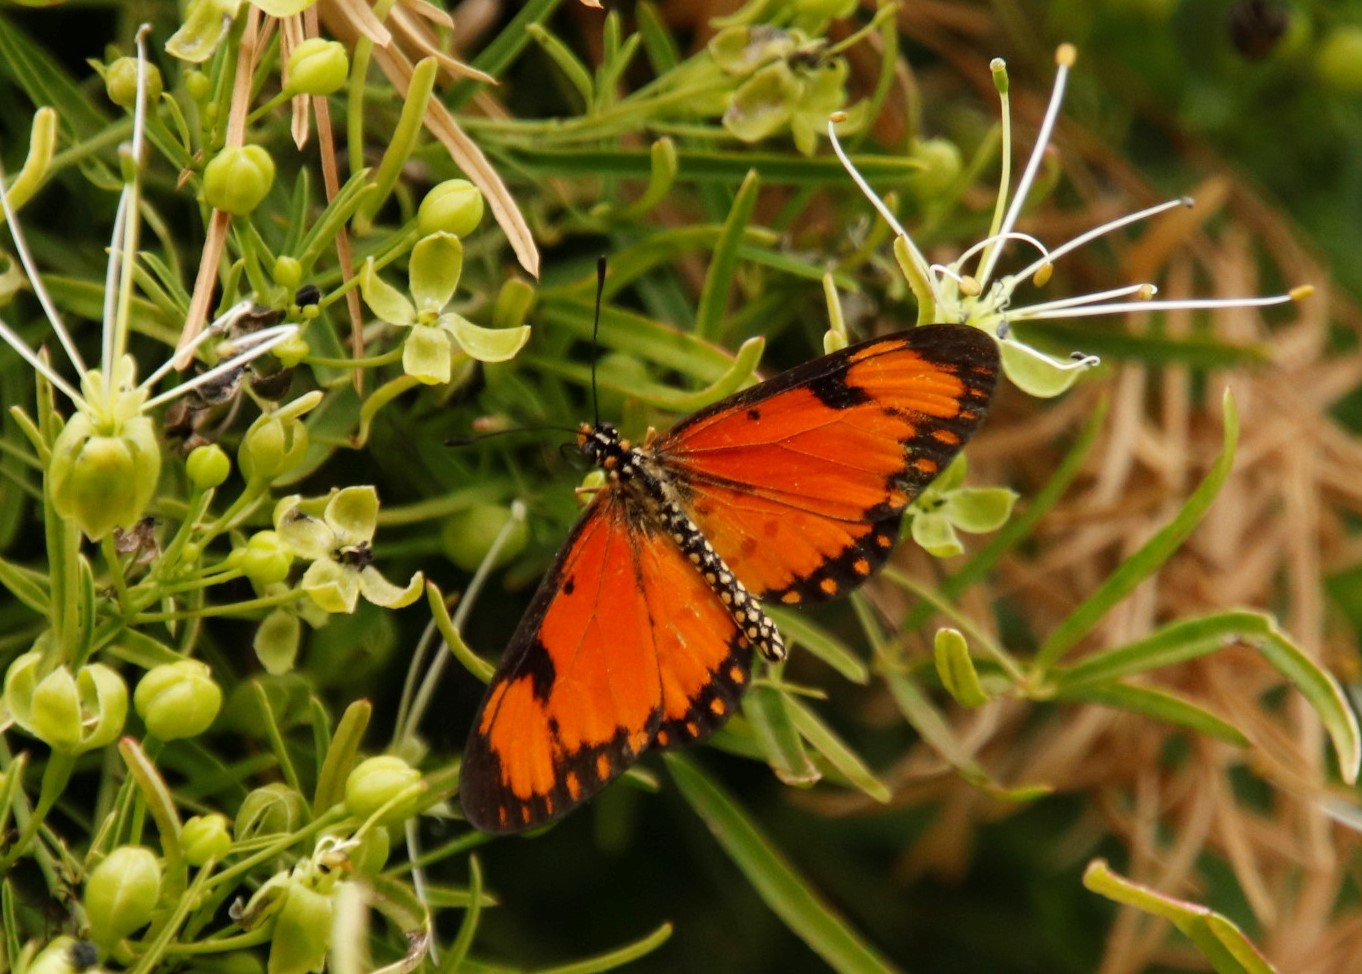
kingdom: Animalia
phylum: Arthropoda
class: Insecta
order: Lepidoptera
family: Nymphalidae
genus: Acraea
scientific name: Acraea Telchinia serena
